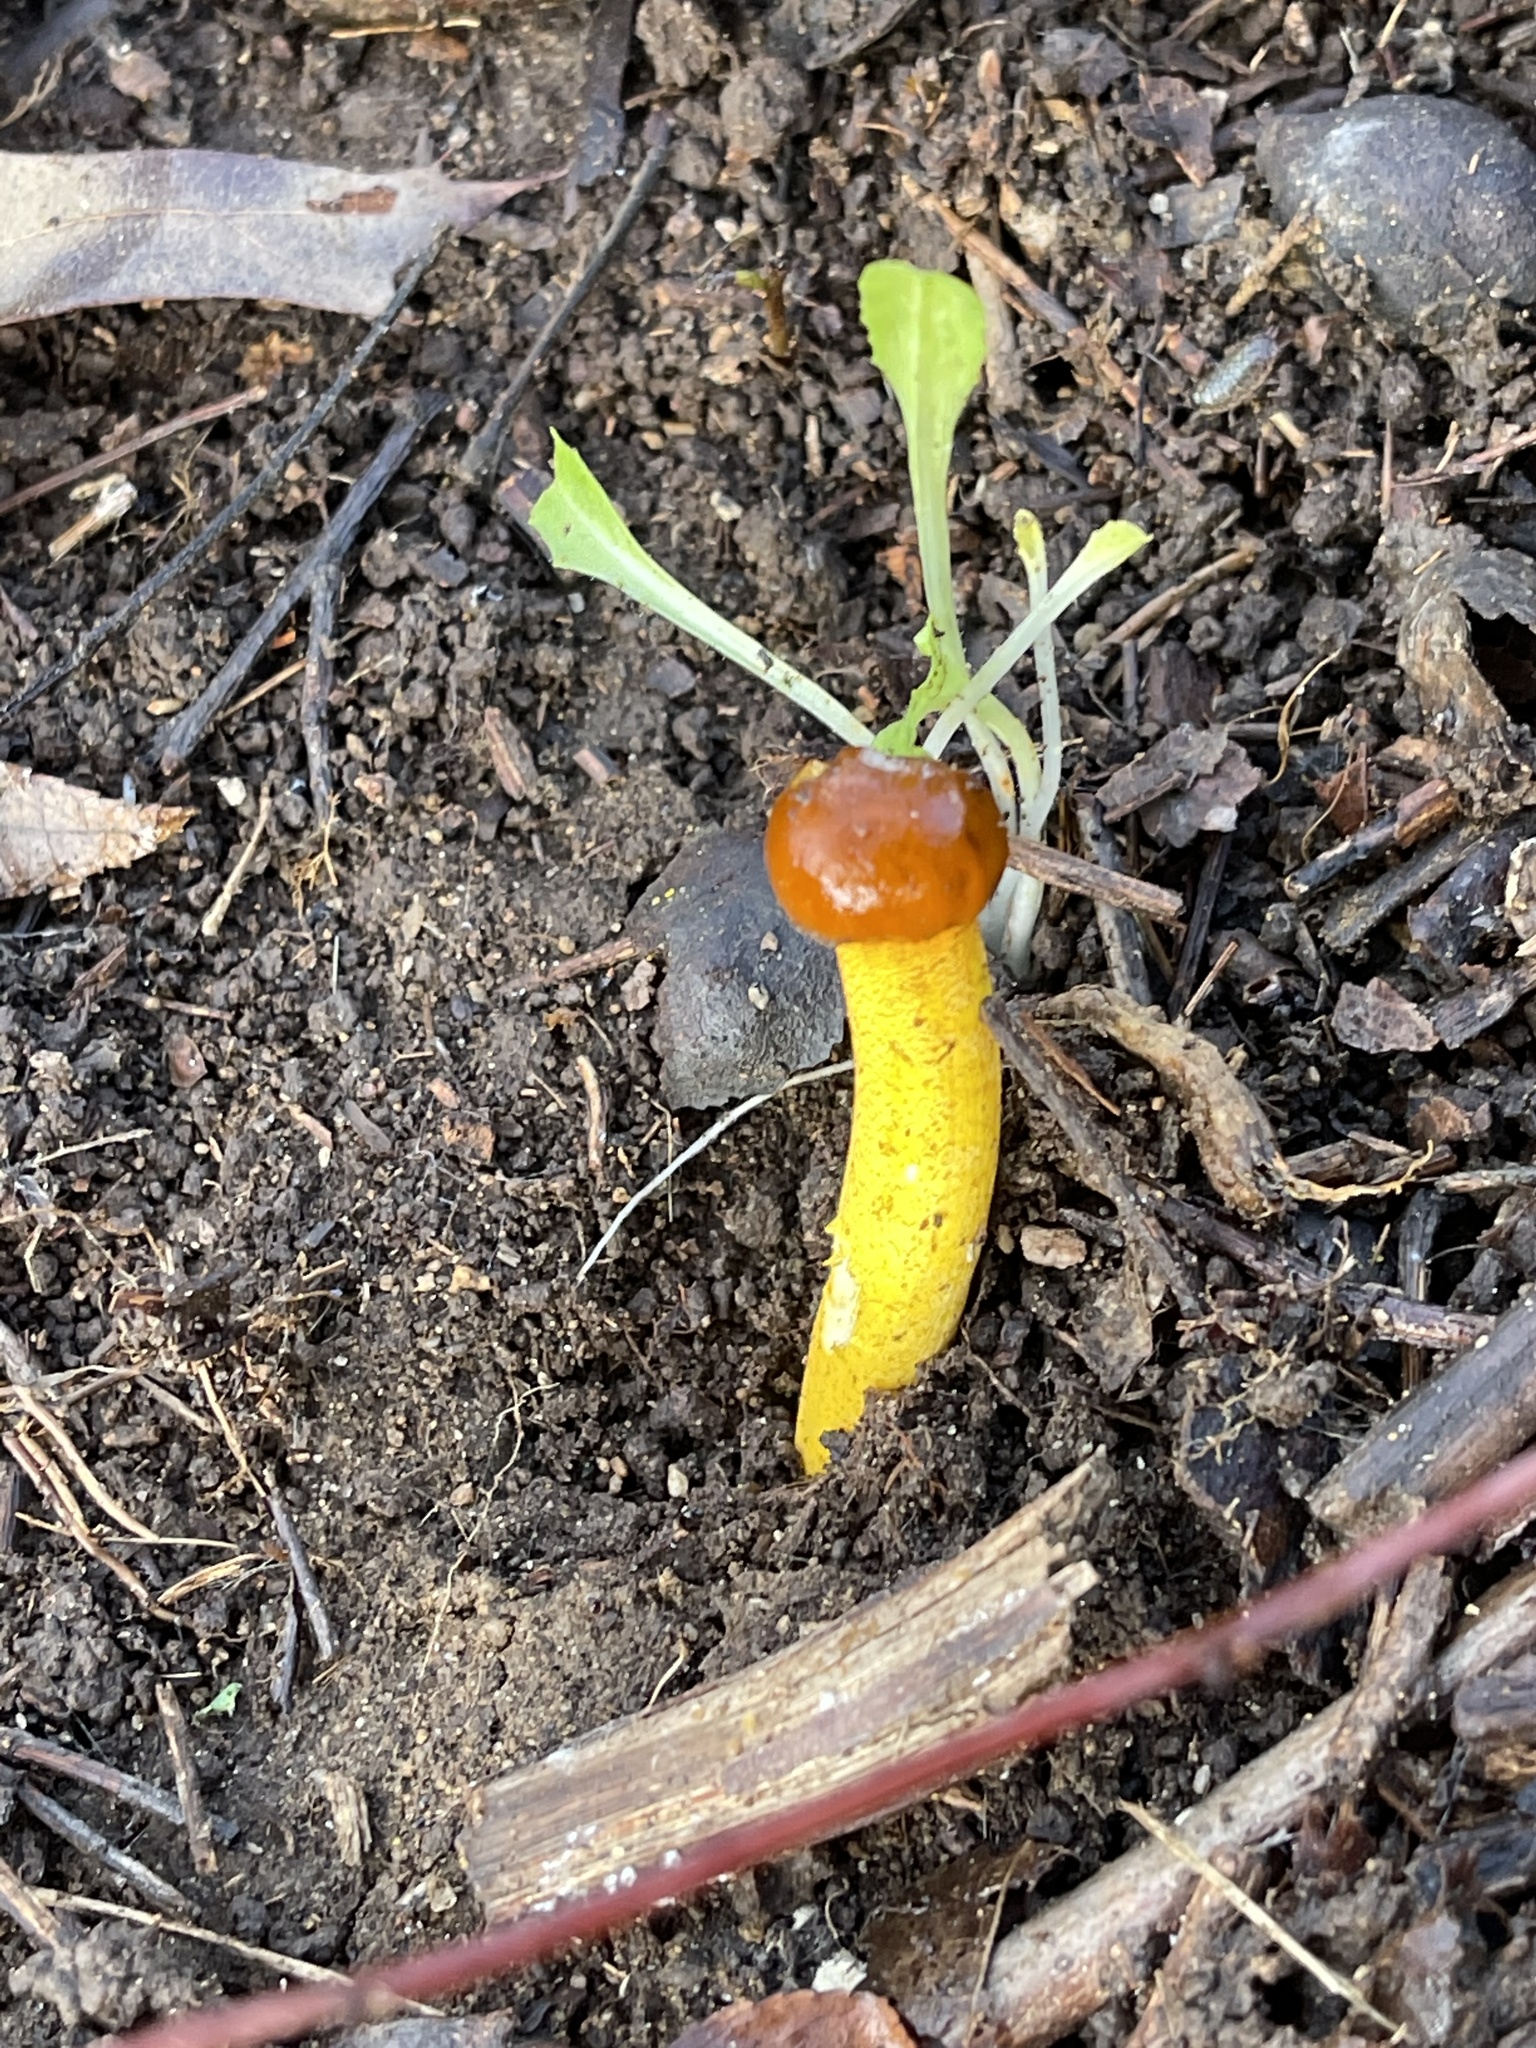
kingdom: Fungi
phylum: Ascomycota
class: Sordariomycetes
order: Hypocreales
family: Ophiocordycipitaceae
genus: Tolypocladium
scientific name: Tolypocladium ophioglossoides
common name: Snaketongue truffleclub
